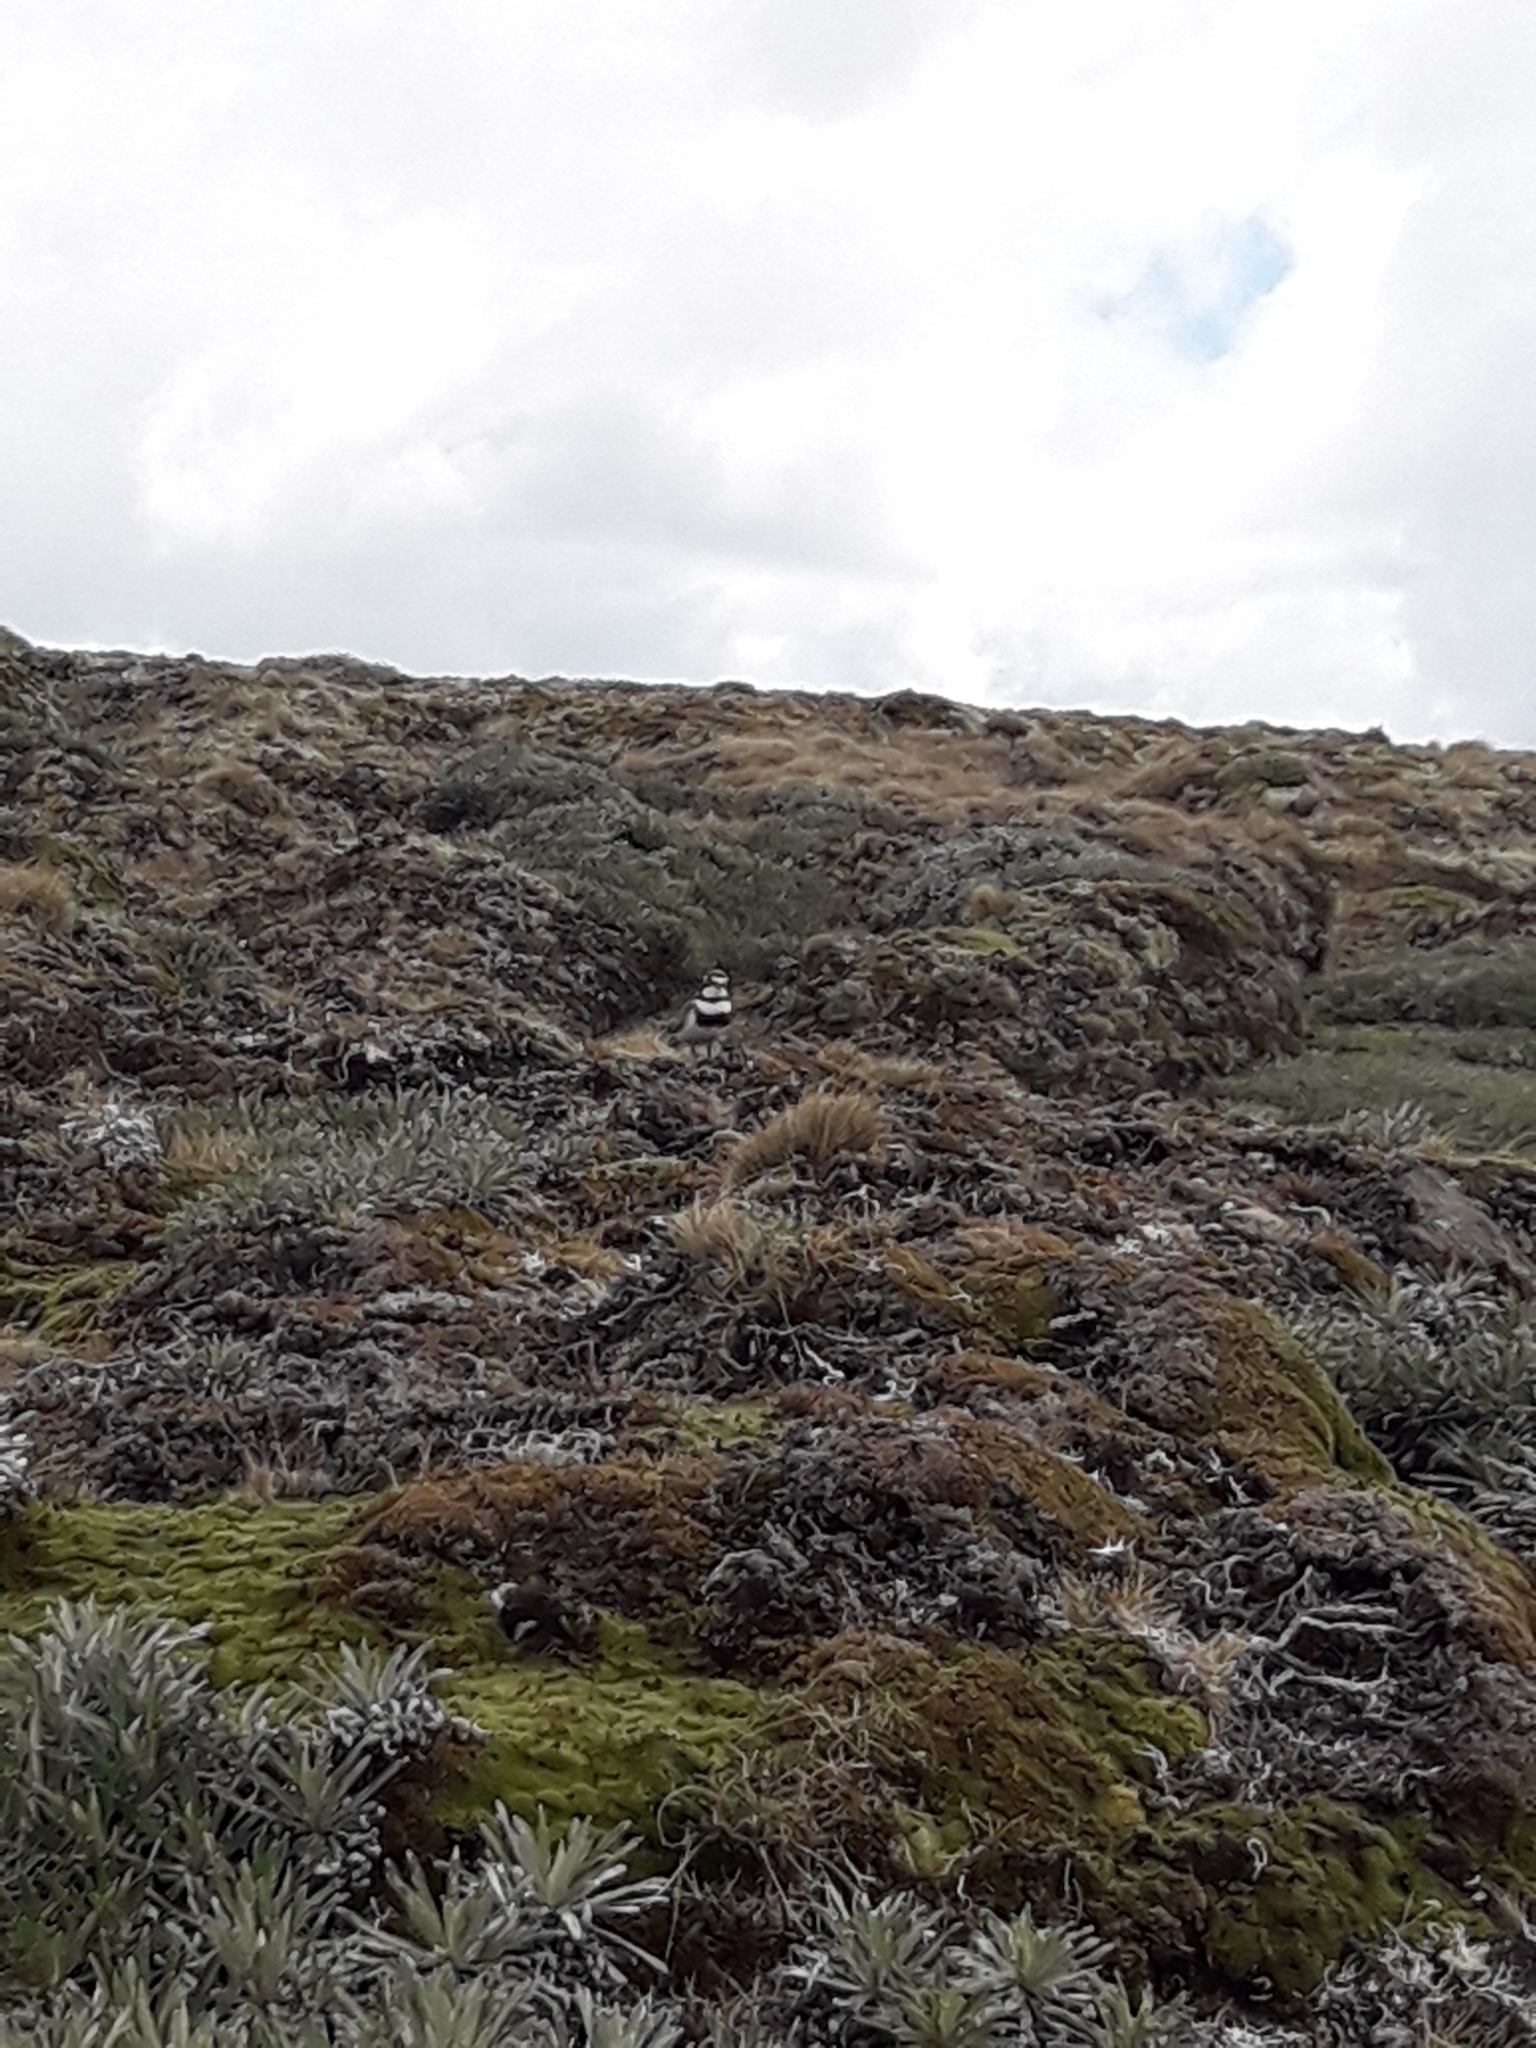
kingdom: Animalia
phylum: Chordata
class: Aves
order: Charadriiformes
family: Charadriidae
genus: Anarhynchus
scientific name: Anarhynchus
